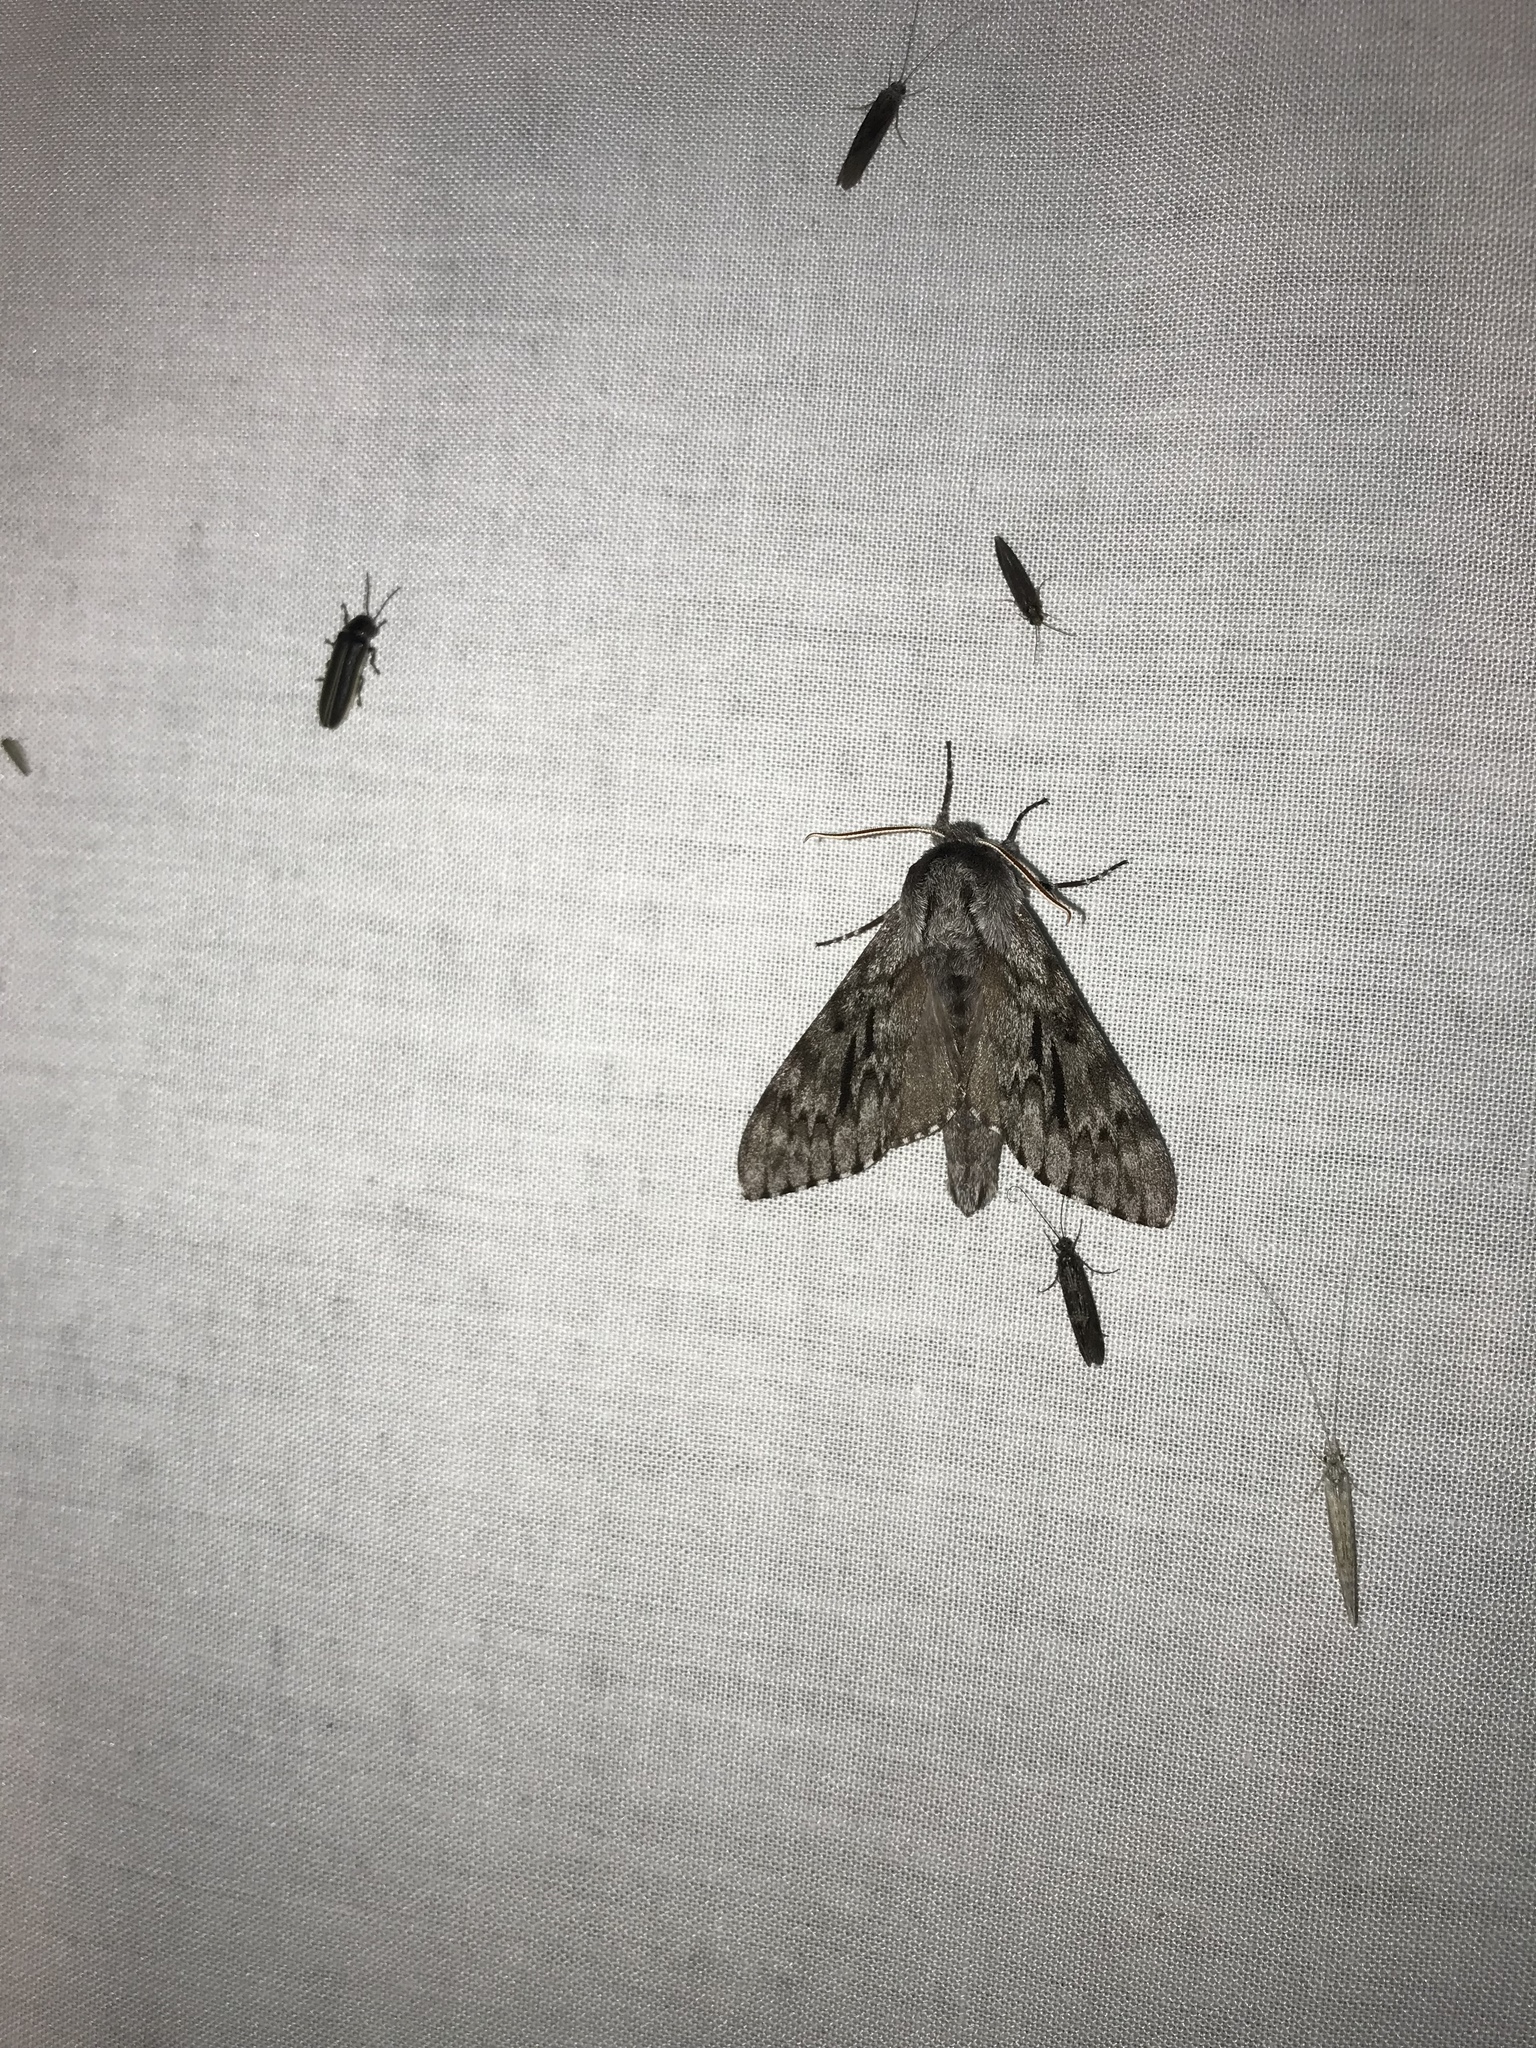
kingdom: Animalia
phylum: Arthropoda
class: Insecta
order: Lepidoptera
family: Sphingidae
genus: Lapara
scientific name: Lapara bombycoides
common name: Northern pine sphinx
